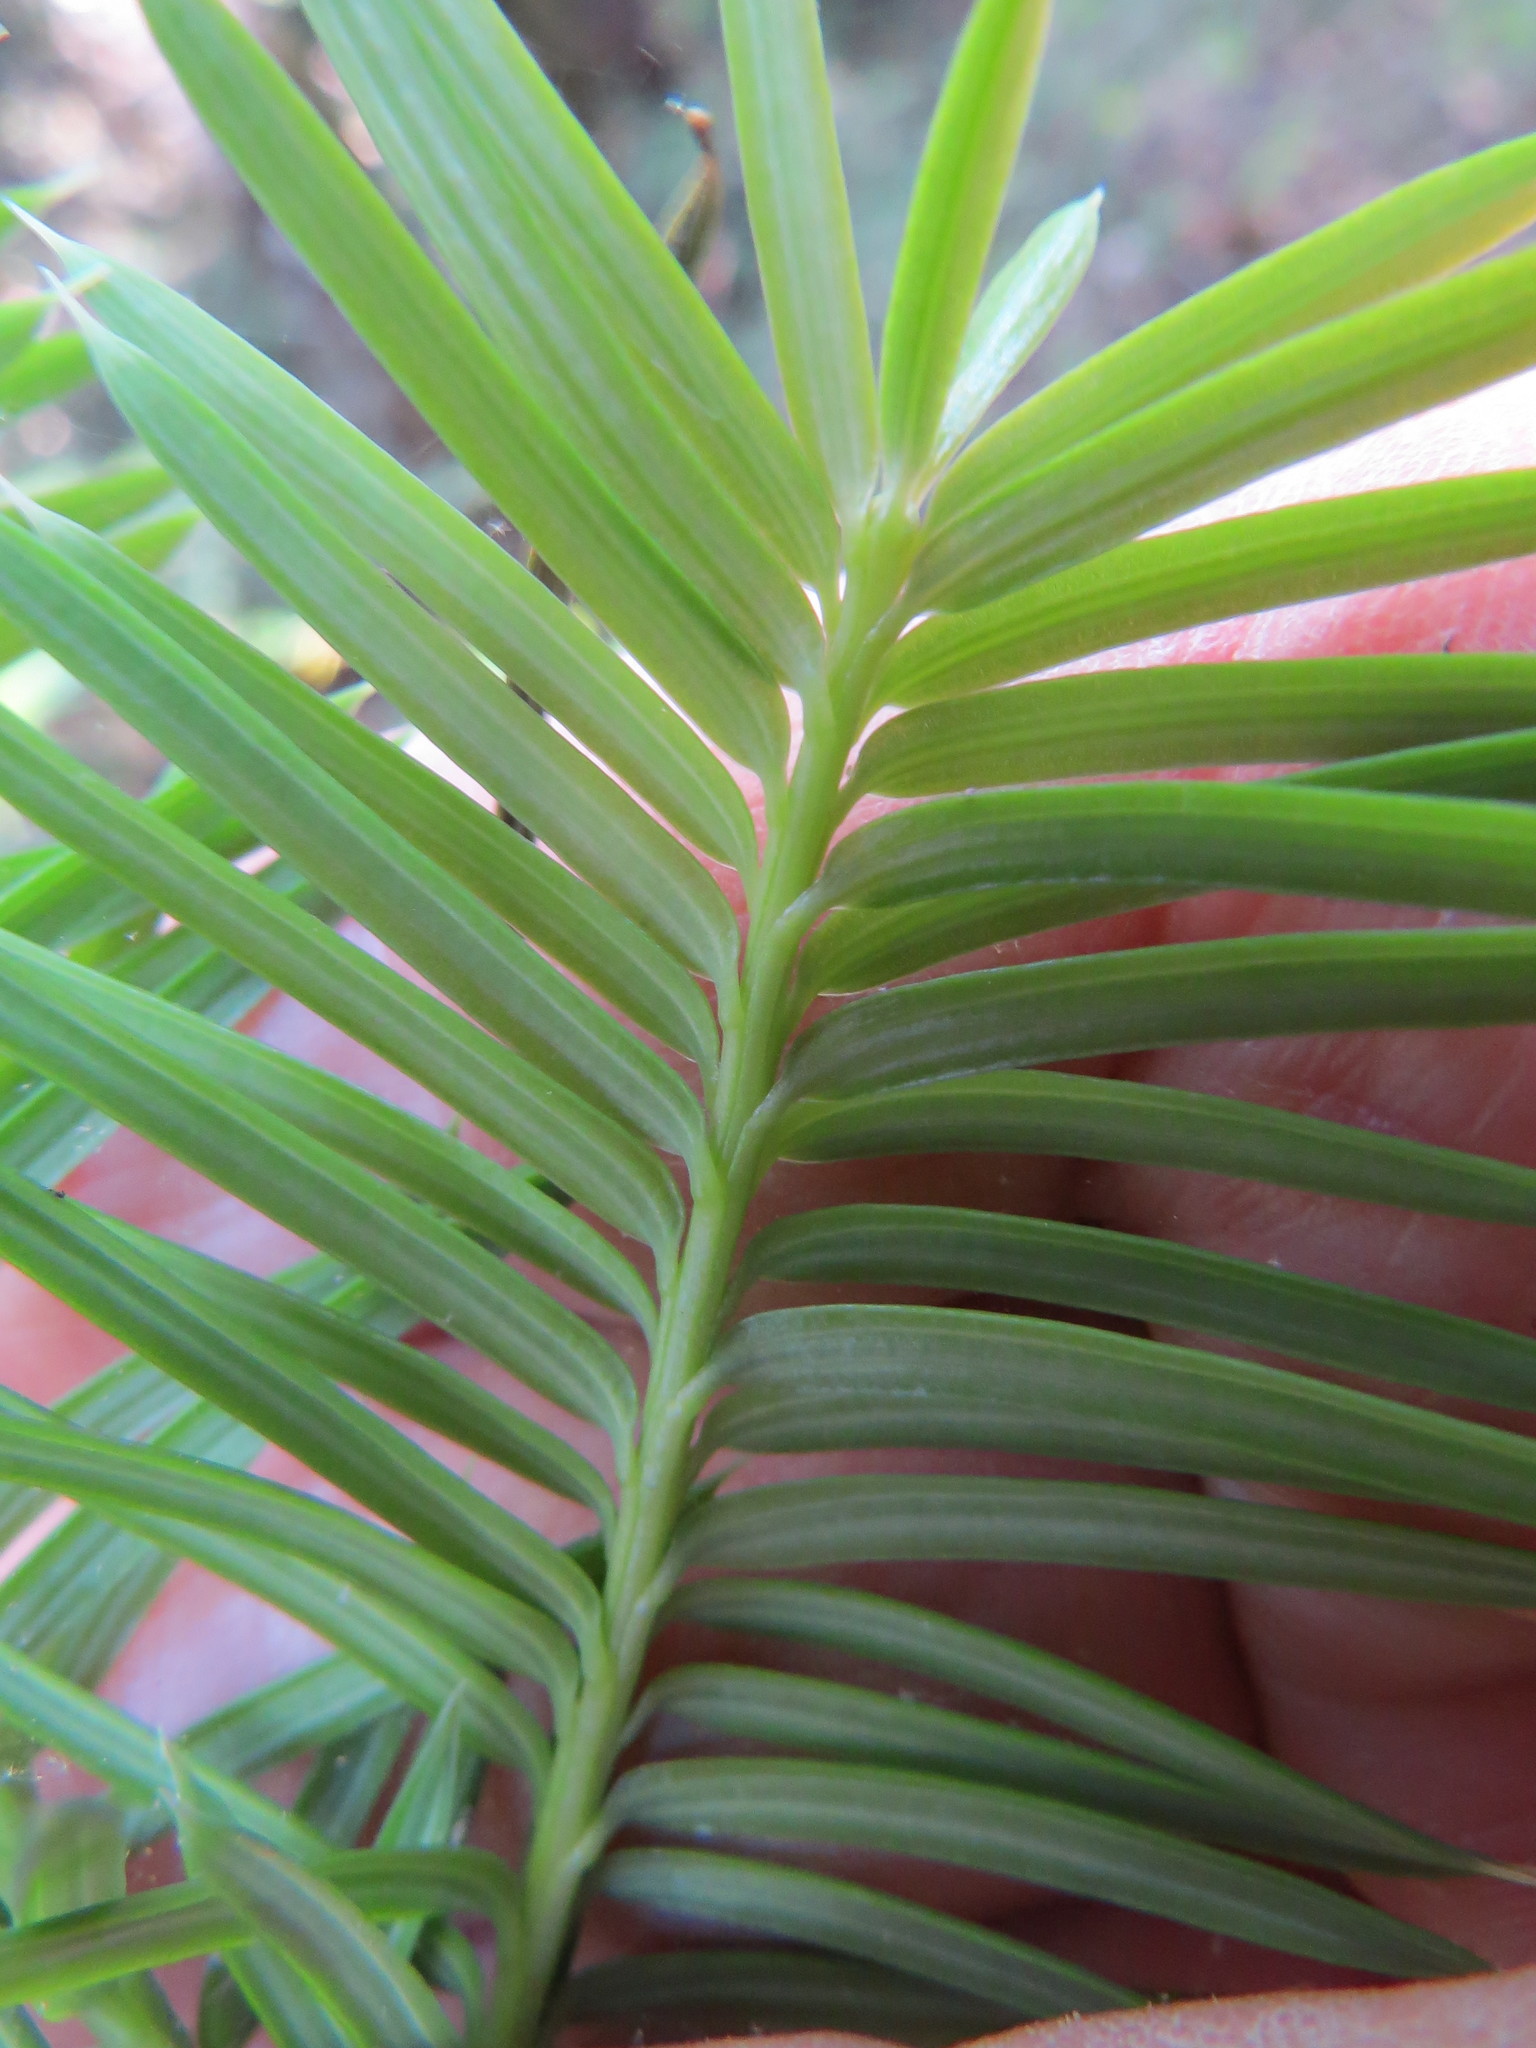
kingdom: Plantae
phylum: Tracheophyta
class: Pinopsida
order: Pinales
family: Taxaceae
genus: Torreya
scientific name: Torreya californica
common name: California torreya
